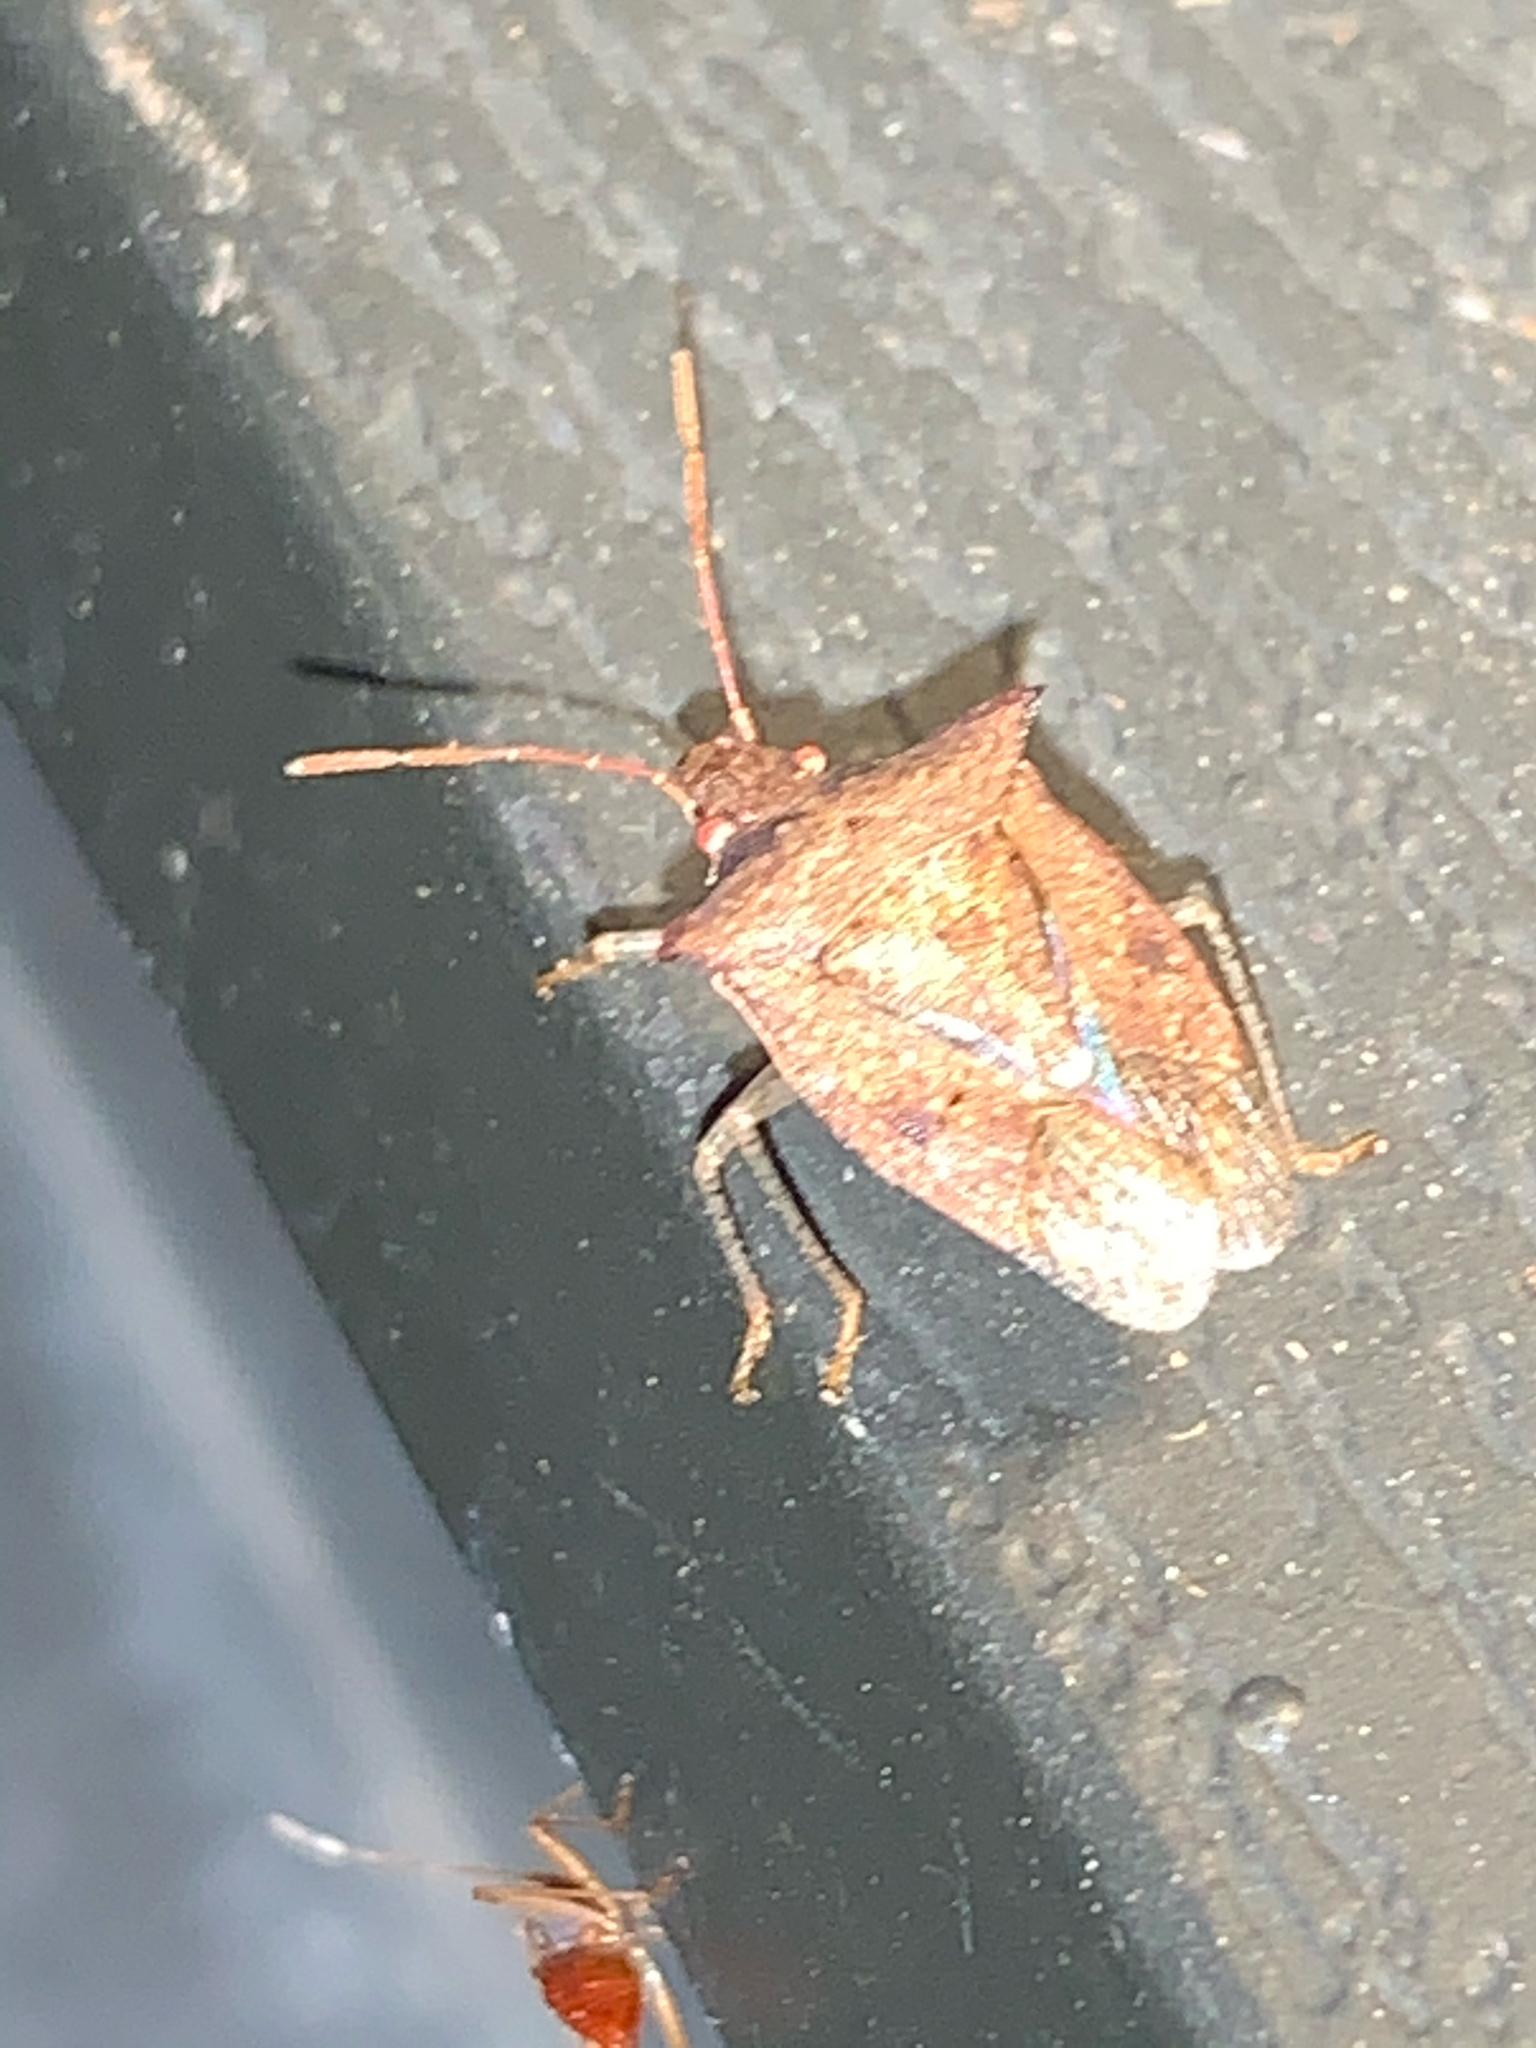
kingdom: Animalia
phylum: Arthropoda
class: Insecta
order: Hemiptera
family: Pentatomidae
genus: Euschistus
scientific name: Euschistus
